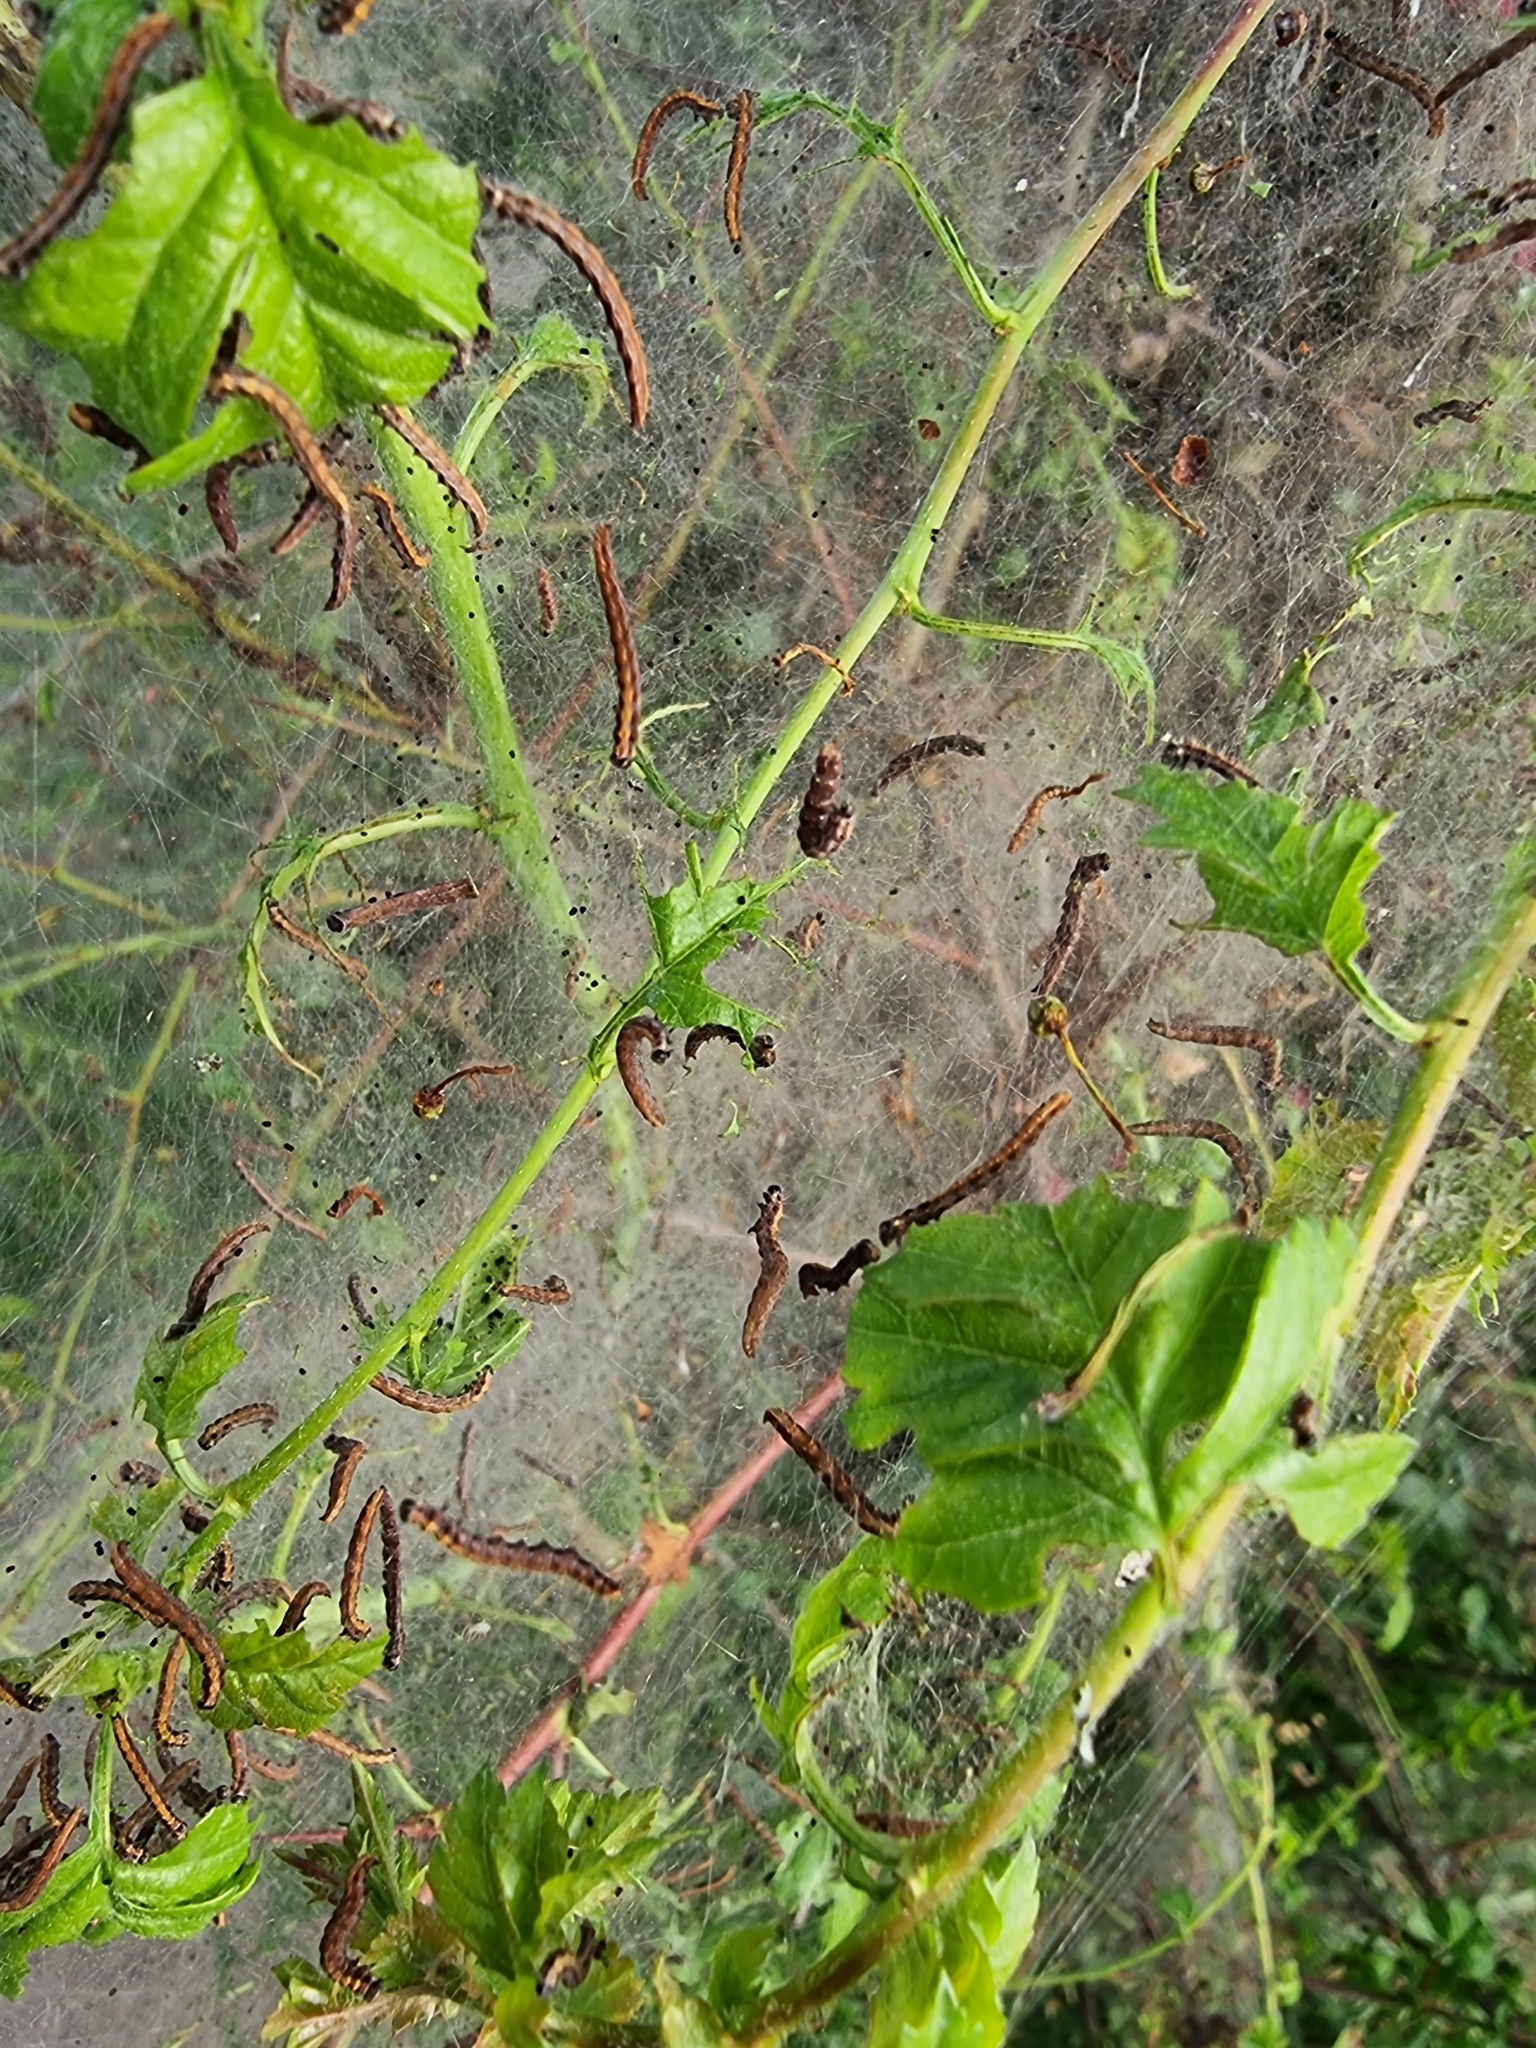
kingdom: Animalia
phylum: Arthropoda
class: Insecta
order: Lepidoptera
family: Yponomeutidae
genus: Scythropia
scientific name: Scythropia crataegella
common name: Hawthorn moth
